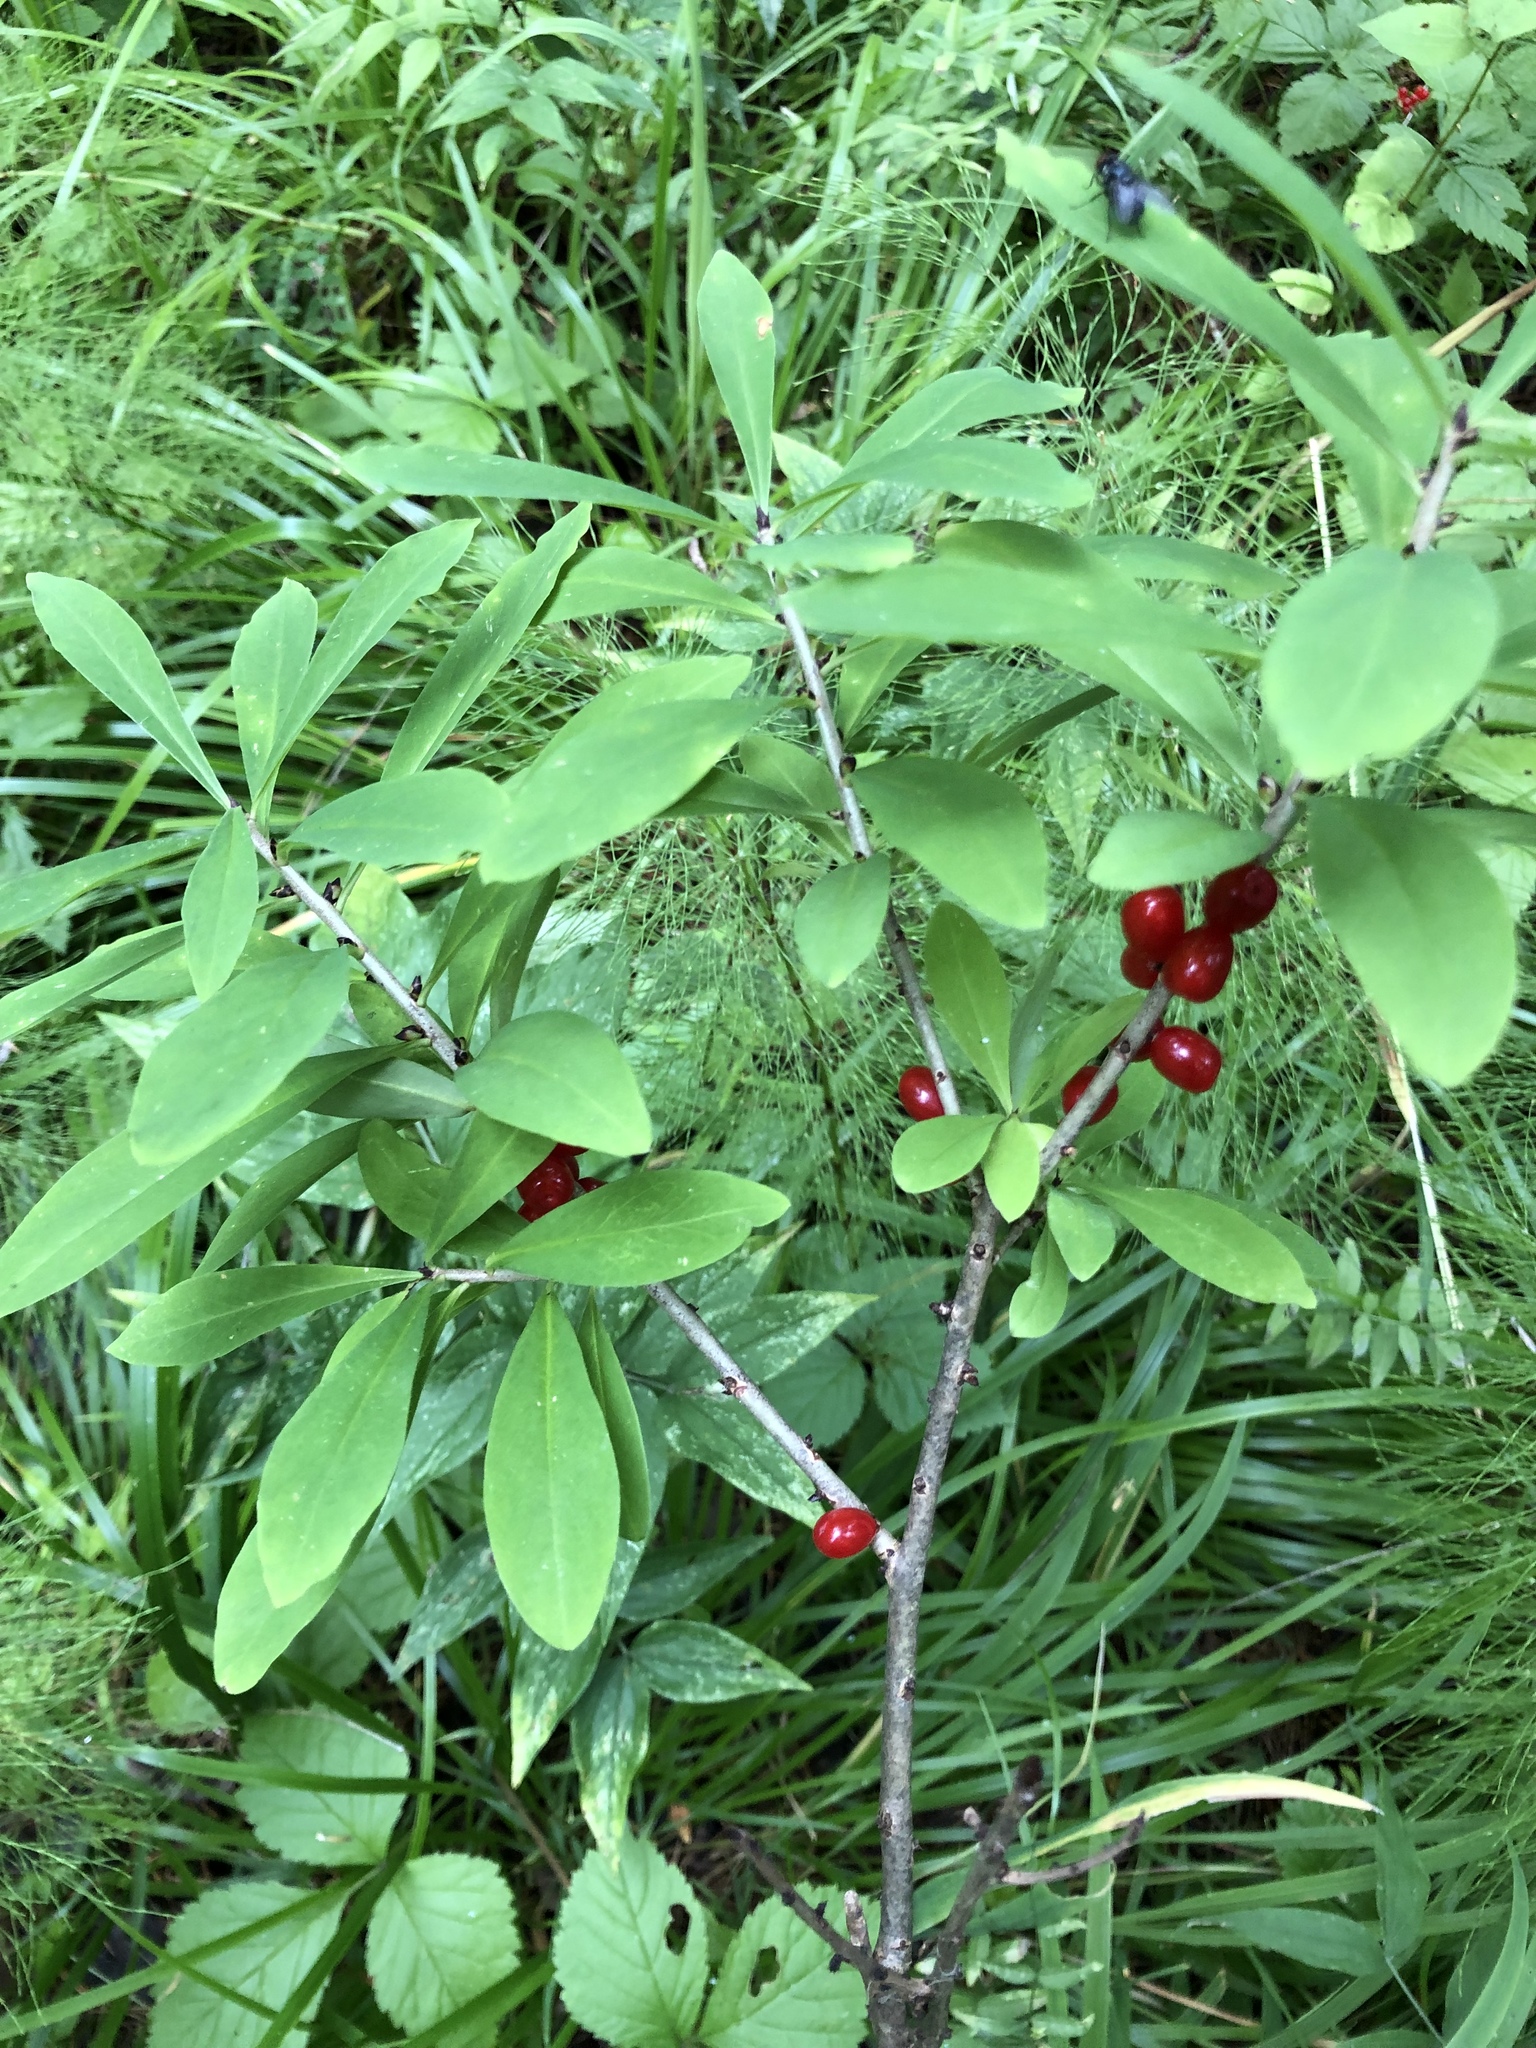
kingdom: Plantae
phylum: Tracheophyta
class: Magnoliopsida
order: Malvales
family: Thymelaeaceae
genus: Daphne
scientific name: Daphne mezereum
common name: Mezereon
